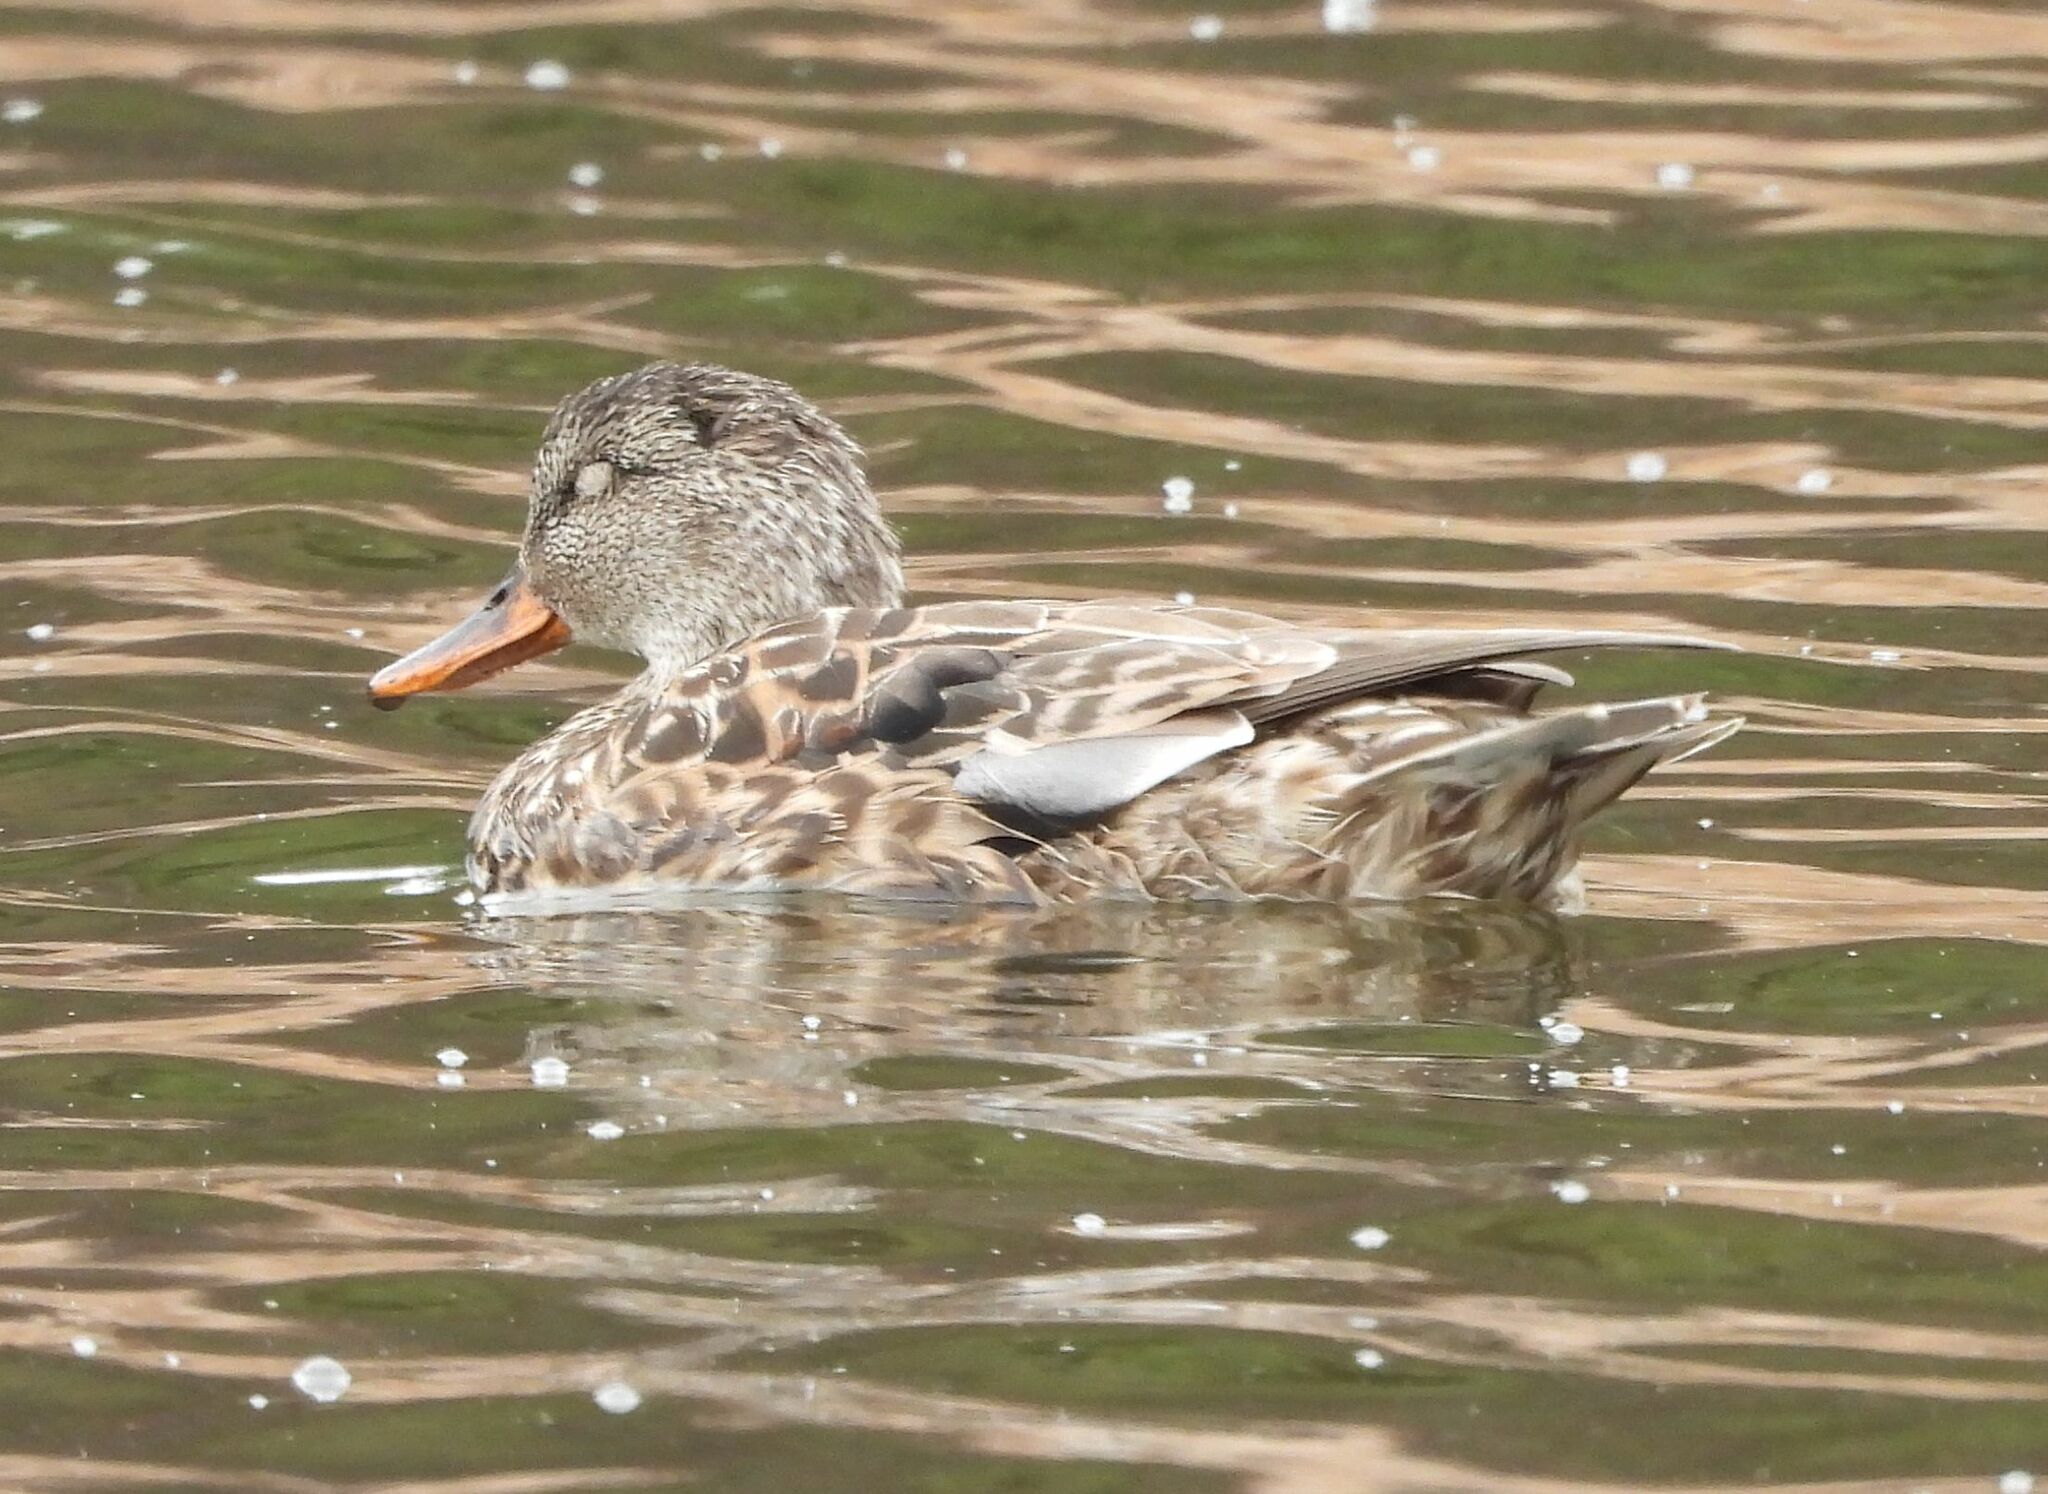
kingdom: Animalia
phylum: Chordata
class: Aves
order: Anseriformes
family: Anatidae
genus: Mareca
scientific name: Mareca strepera
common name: Gadwall
